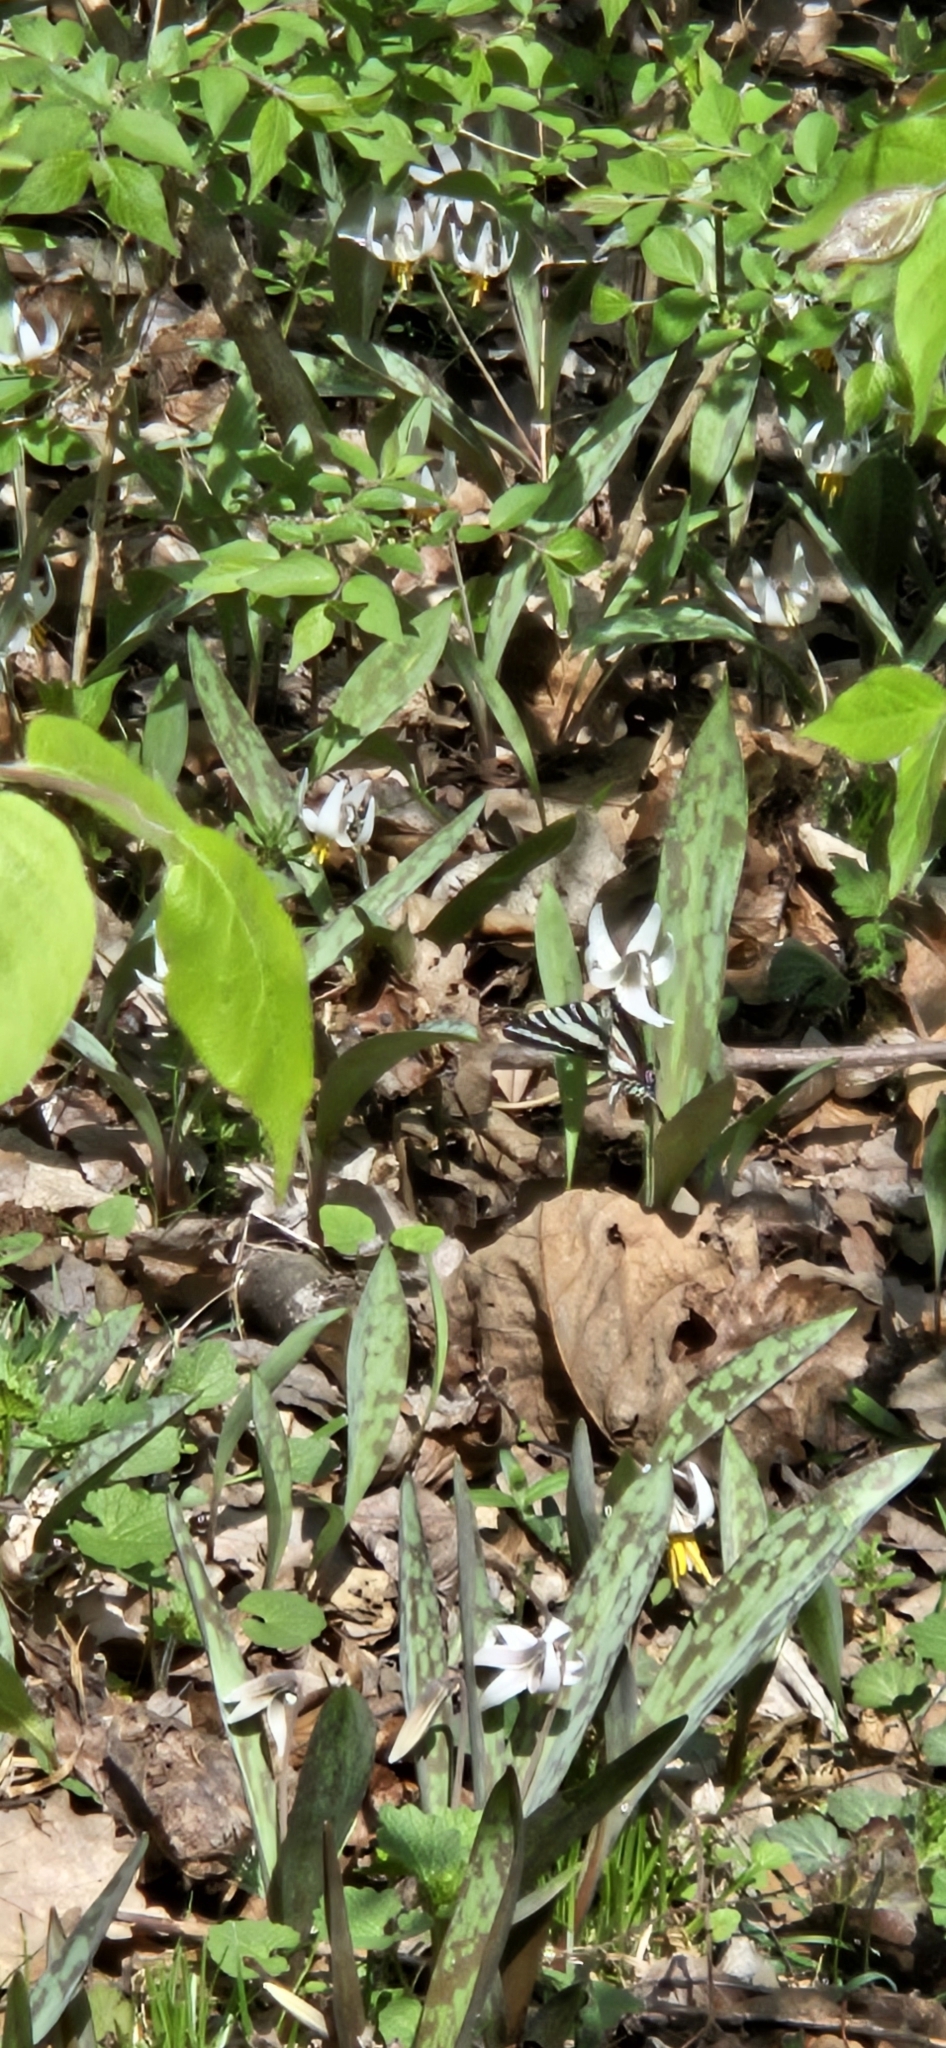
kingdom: Animalia
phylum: Arthropoda
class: Insecta
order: Lepidoptera
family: Papilionidae
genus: Protographium
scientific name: Protographium marcellus
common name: Zebra swallowtail
